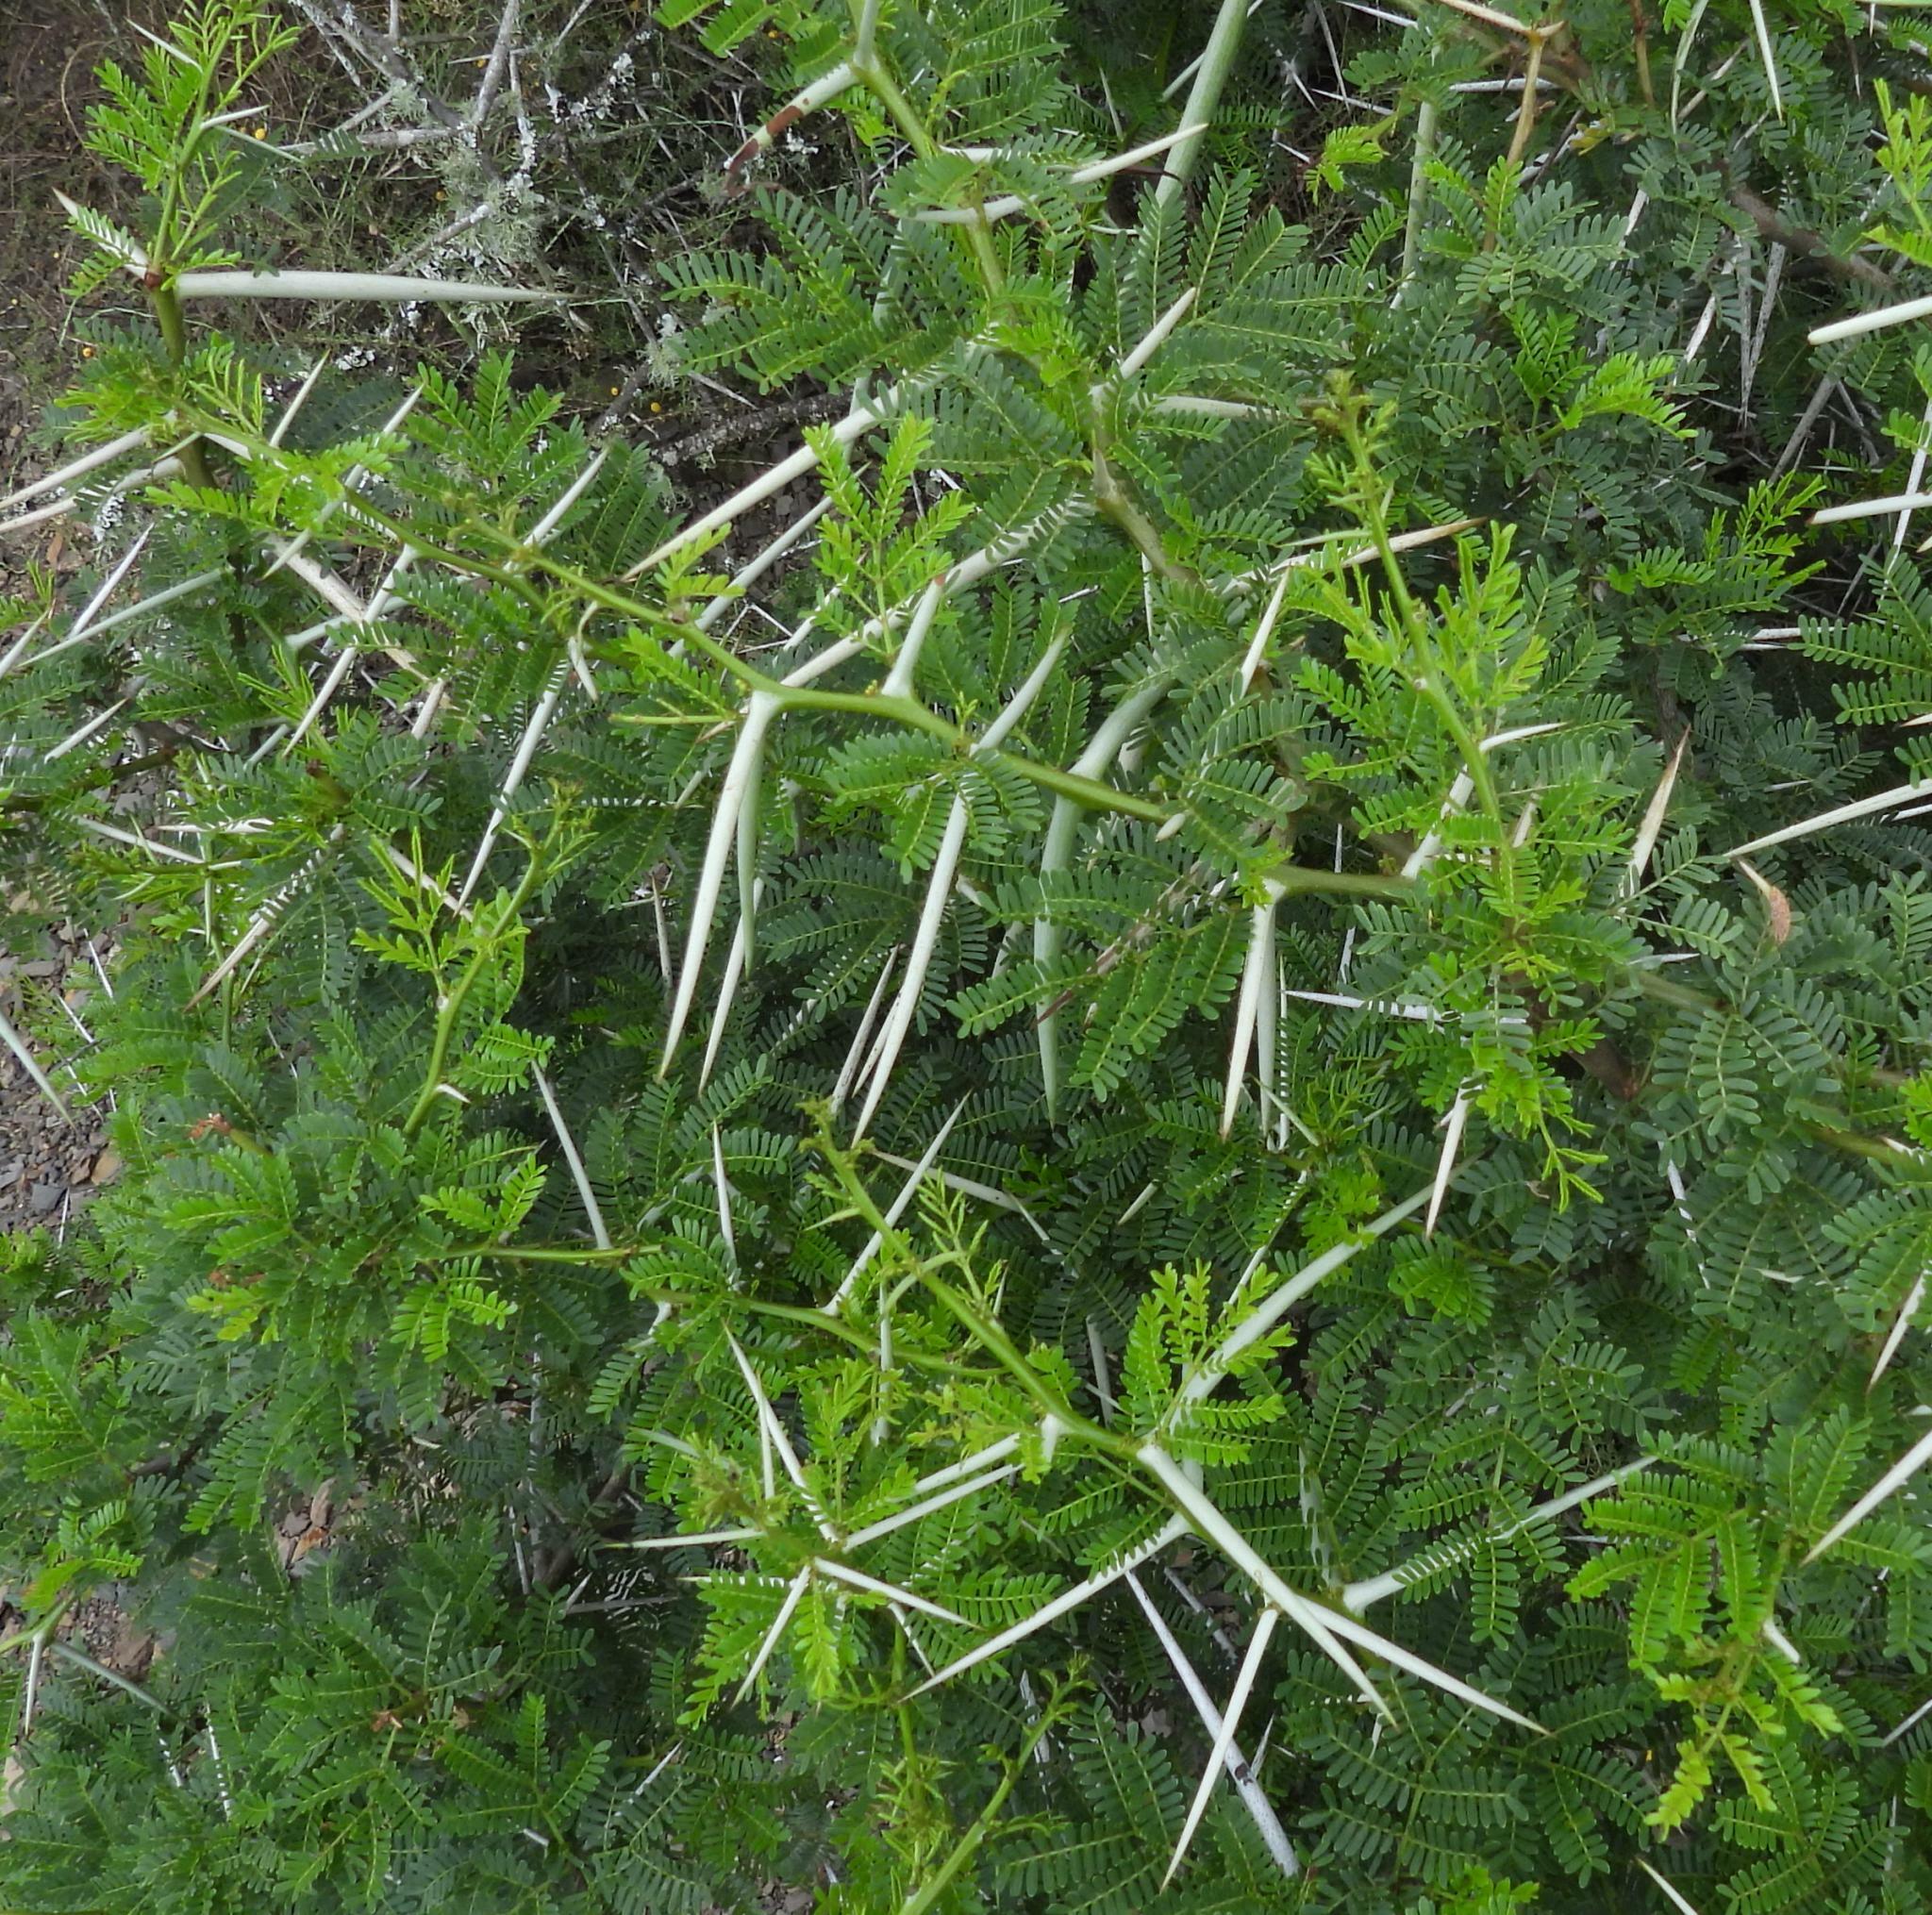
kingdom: Plantae
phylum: Tracheophyta
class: Magnoliopsida
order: Fabales
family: Fabaceae
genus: Vachellia
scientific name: Vachellia karroo
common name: Sweet thorn
